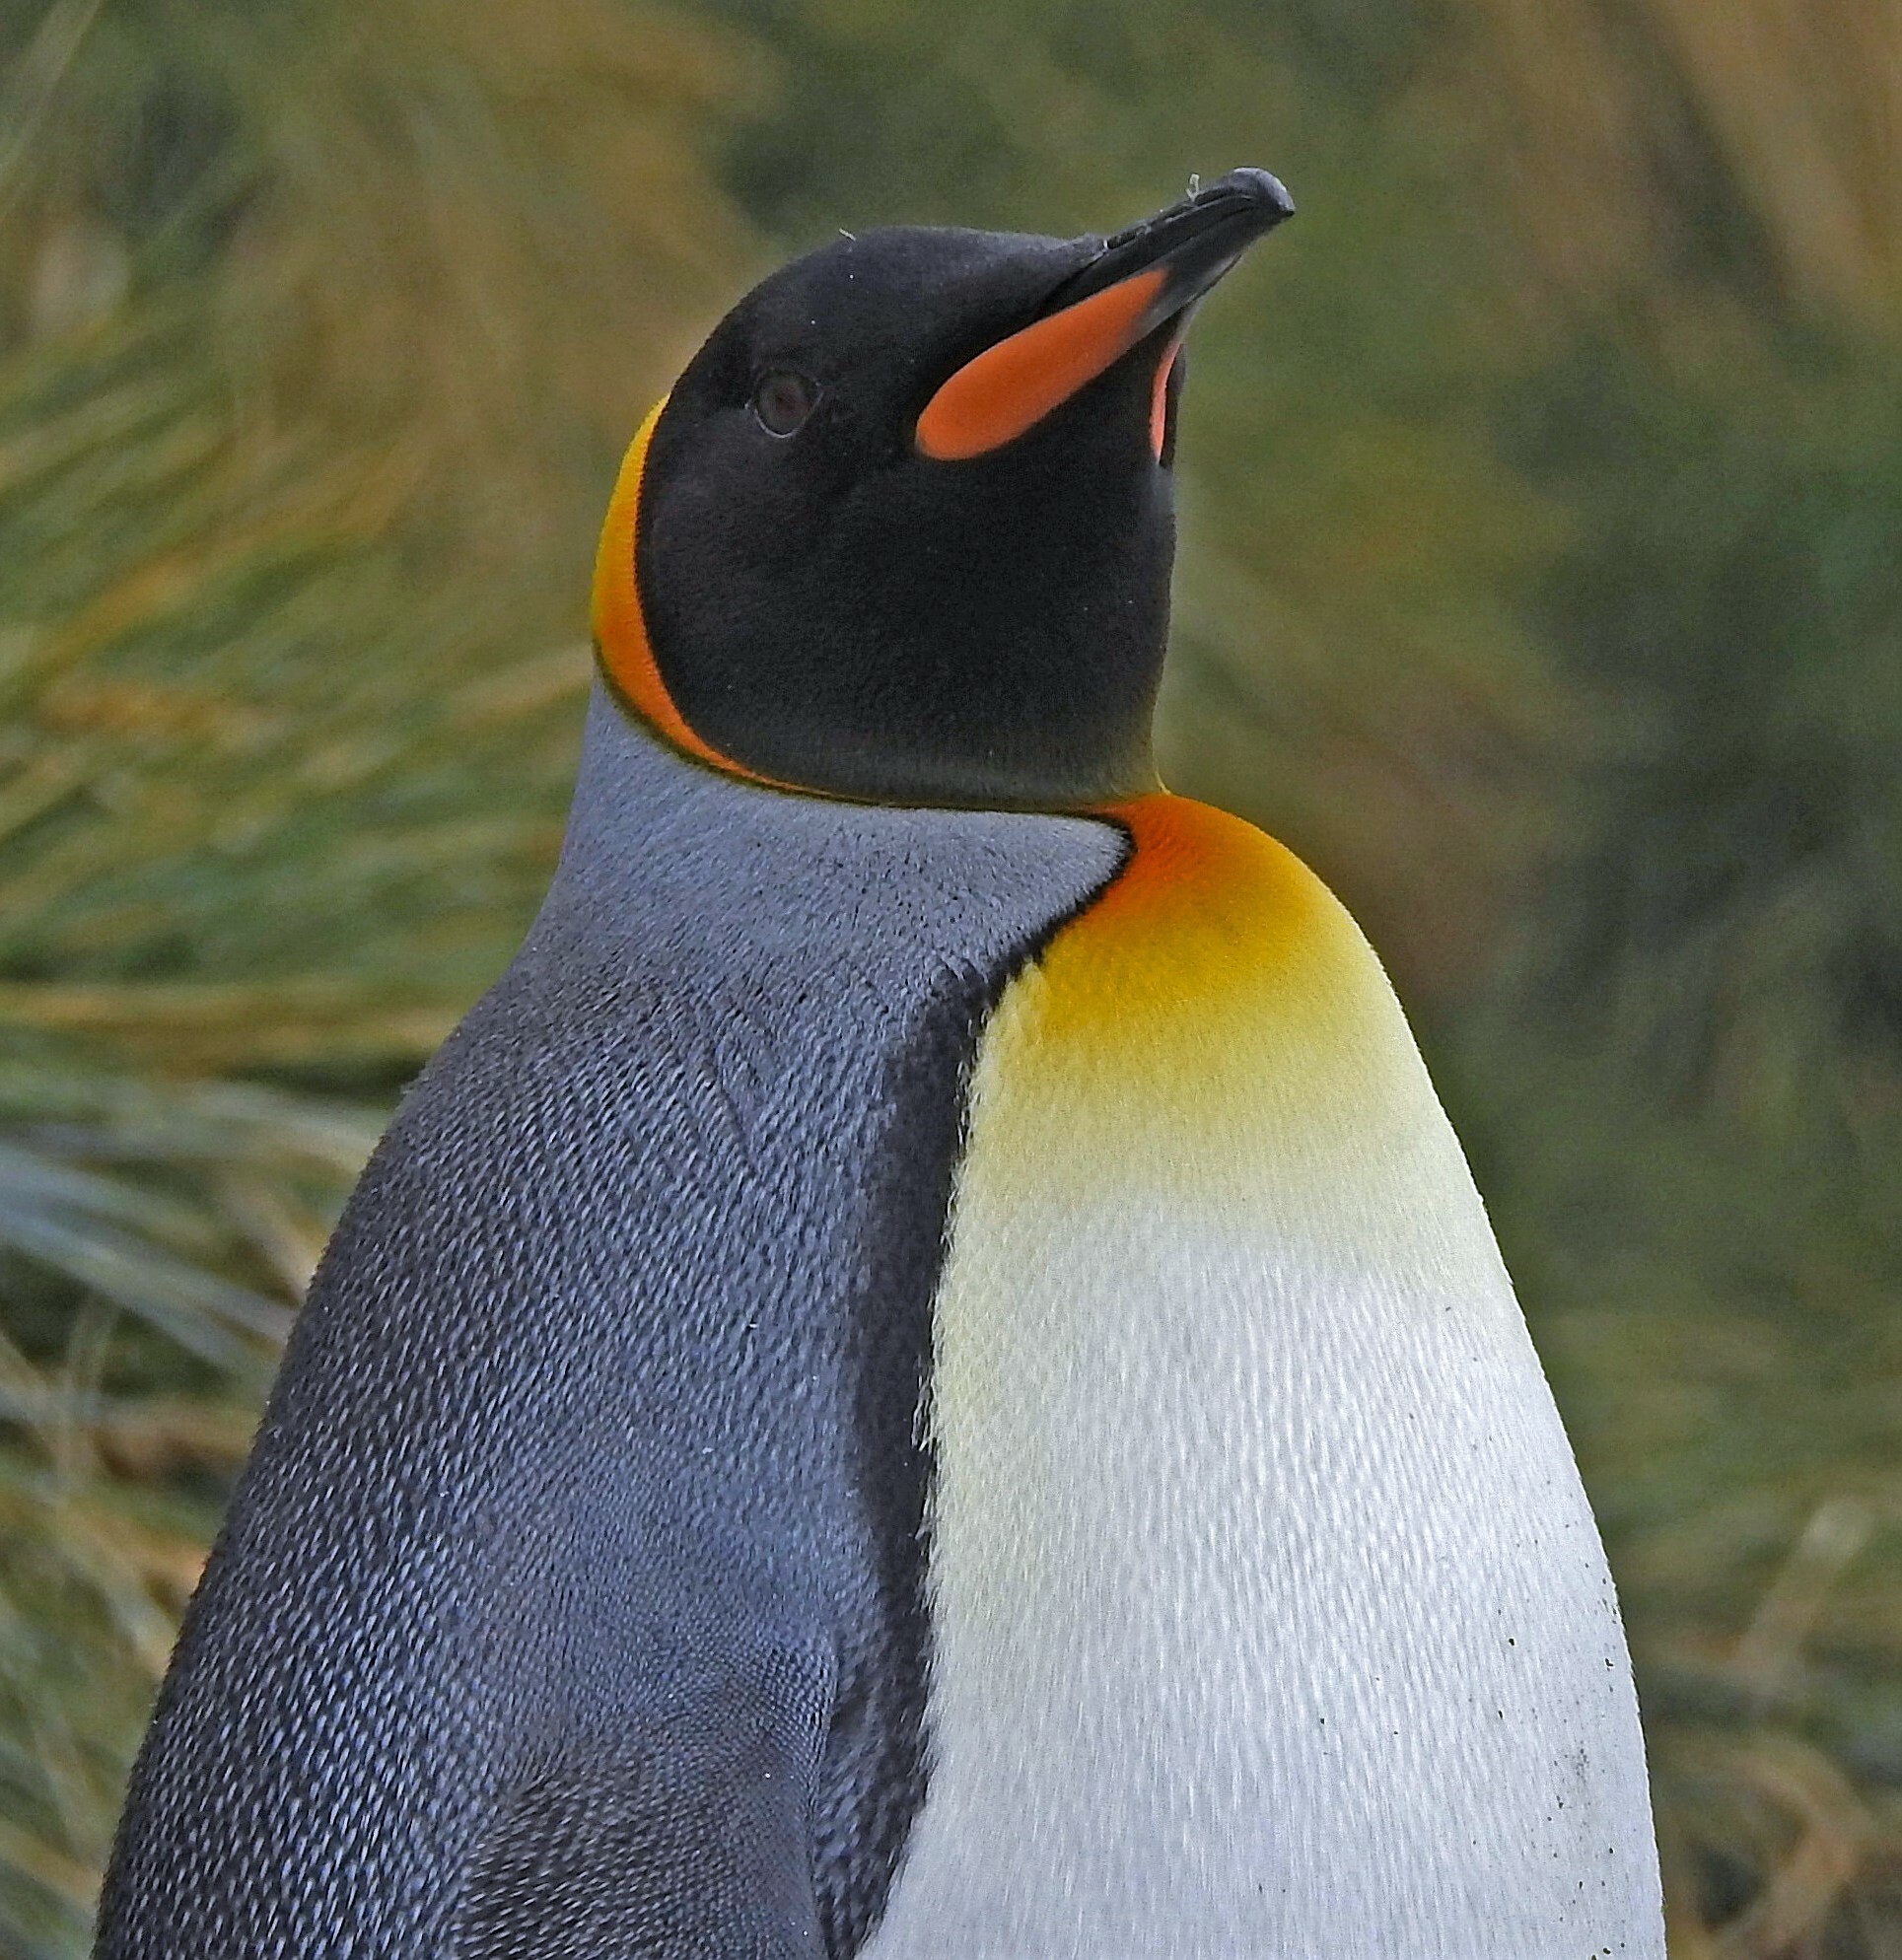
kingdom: Animalia
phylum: Chordata
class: Aves
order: Sphenisciformes
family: Spheniscidae
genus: Aptenodytes
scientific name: Aptenodytes patagonicus
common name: King penguin
